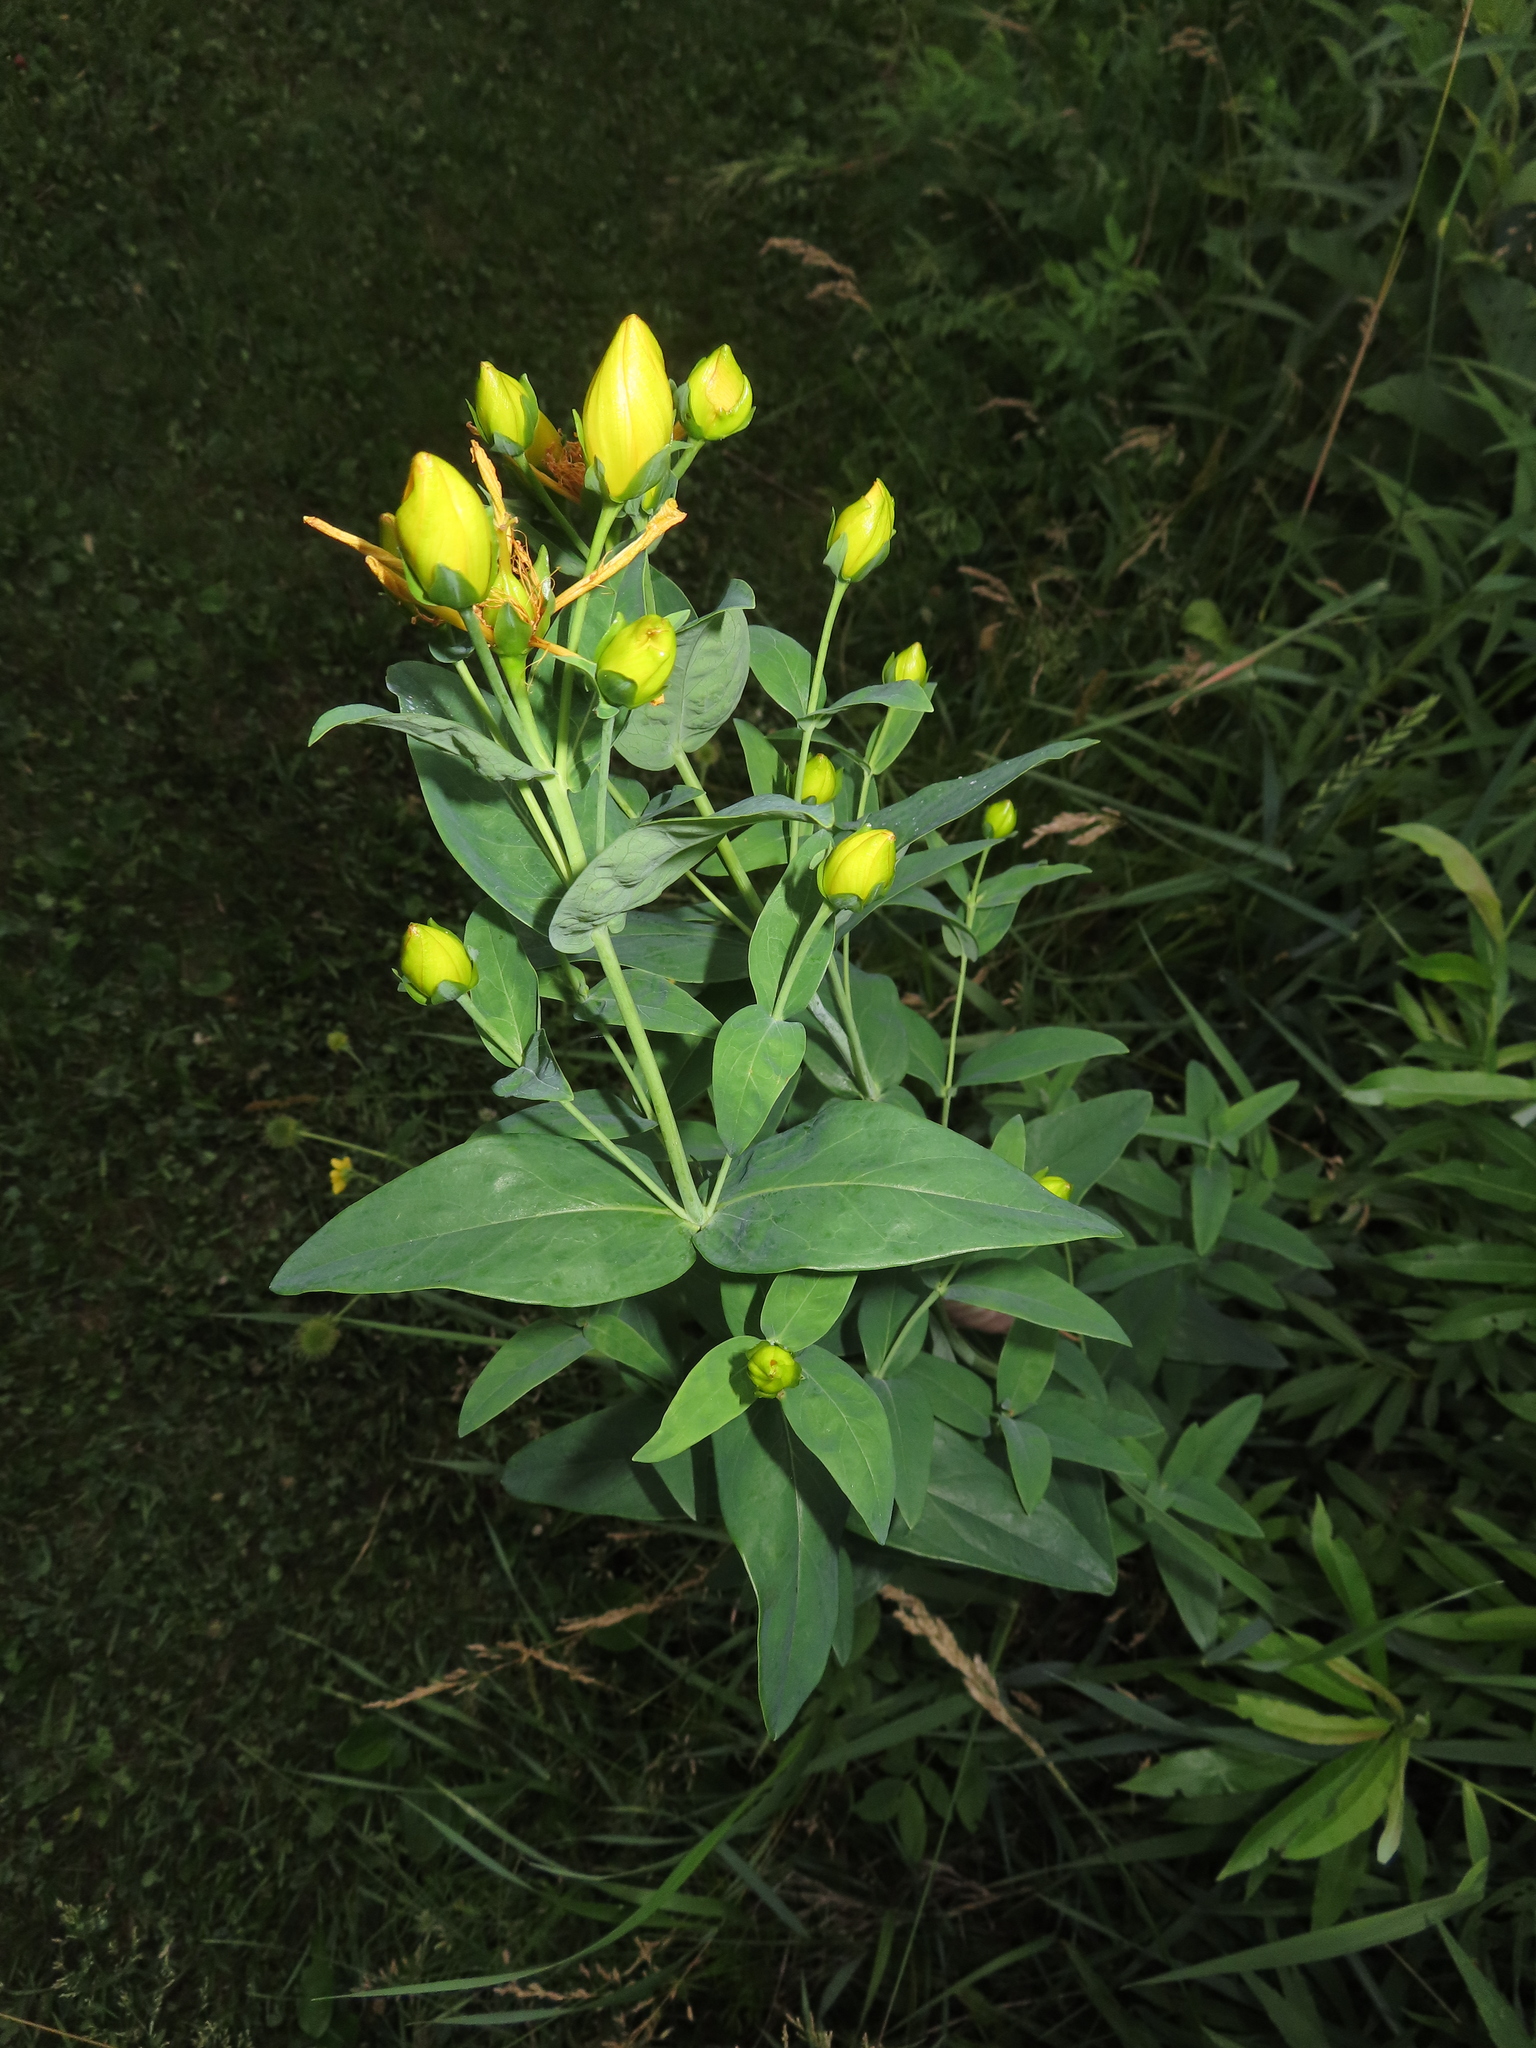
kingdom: Plantae
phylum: Tracheophyta
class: Magnoliopsida
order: Malpighiales
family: Hypericaceae
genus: Hypericum
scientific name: Hypericum ascyron
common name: Giant st. john's-wort
